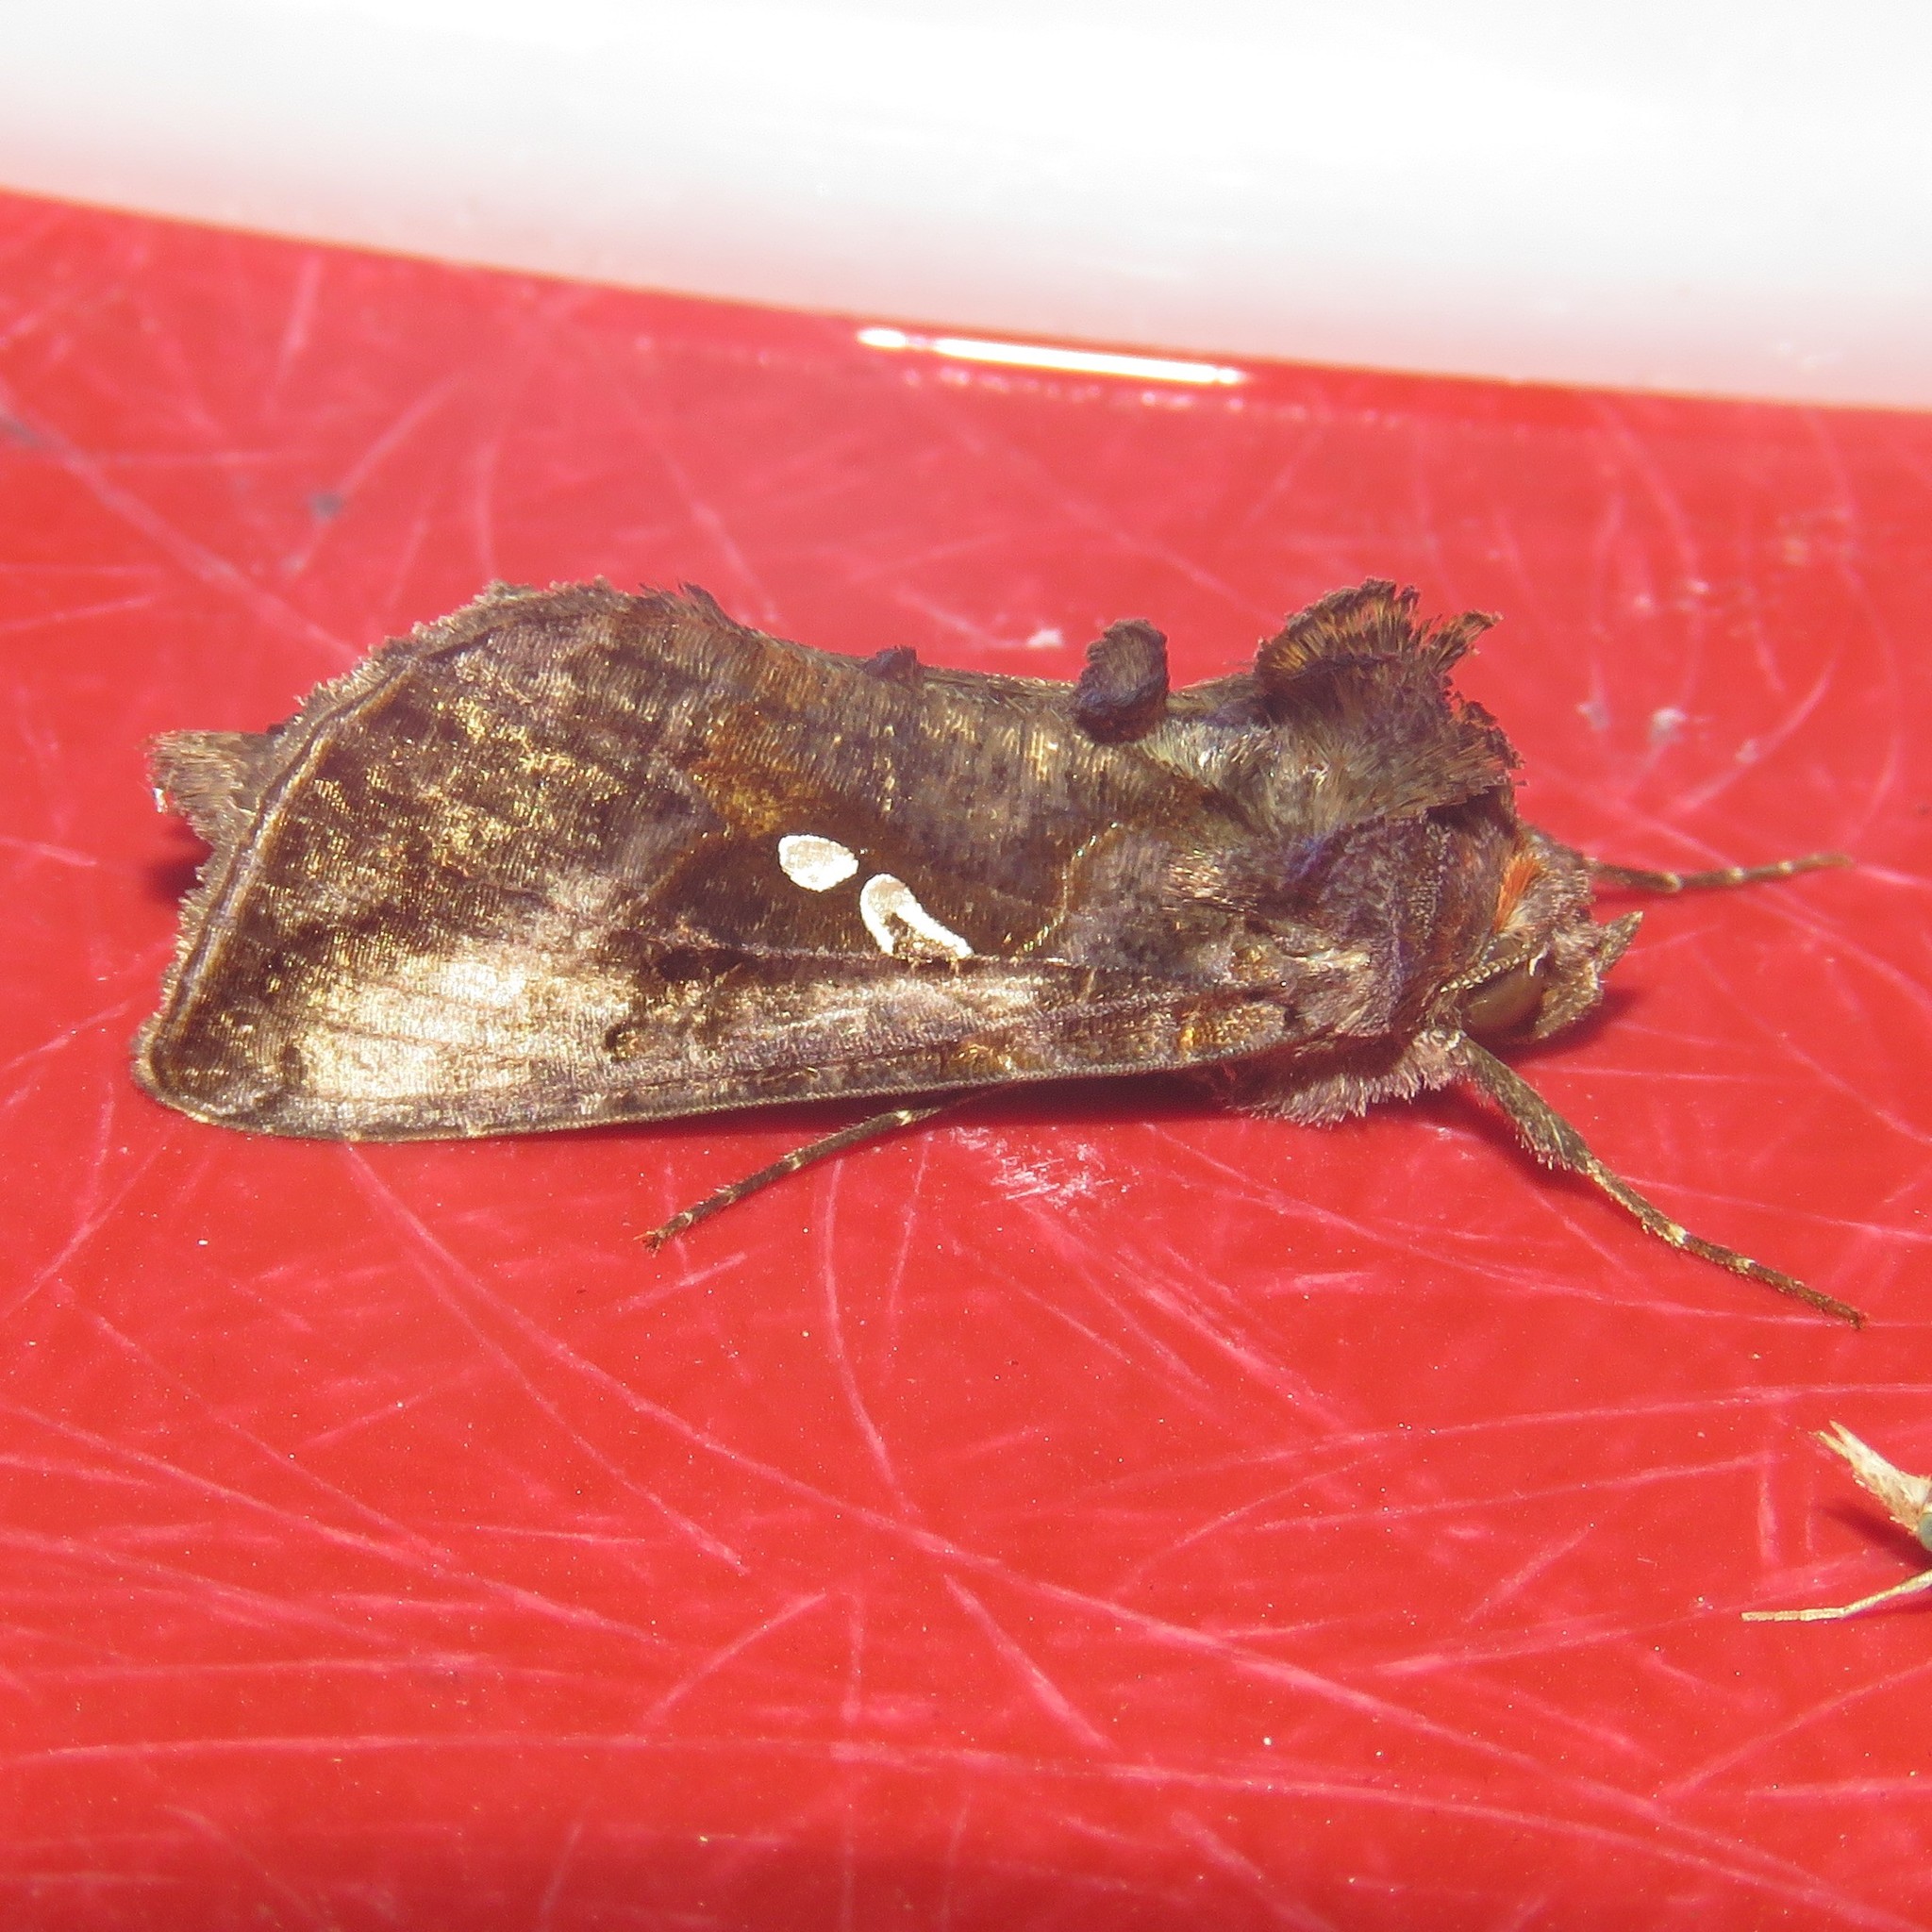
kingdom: Animalia
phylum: Arthropoda
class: Insecta
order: Lepidoptera
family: Noctuidae
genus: Autographa
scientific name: Autographa precationis
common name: Common looper moth
